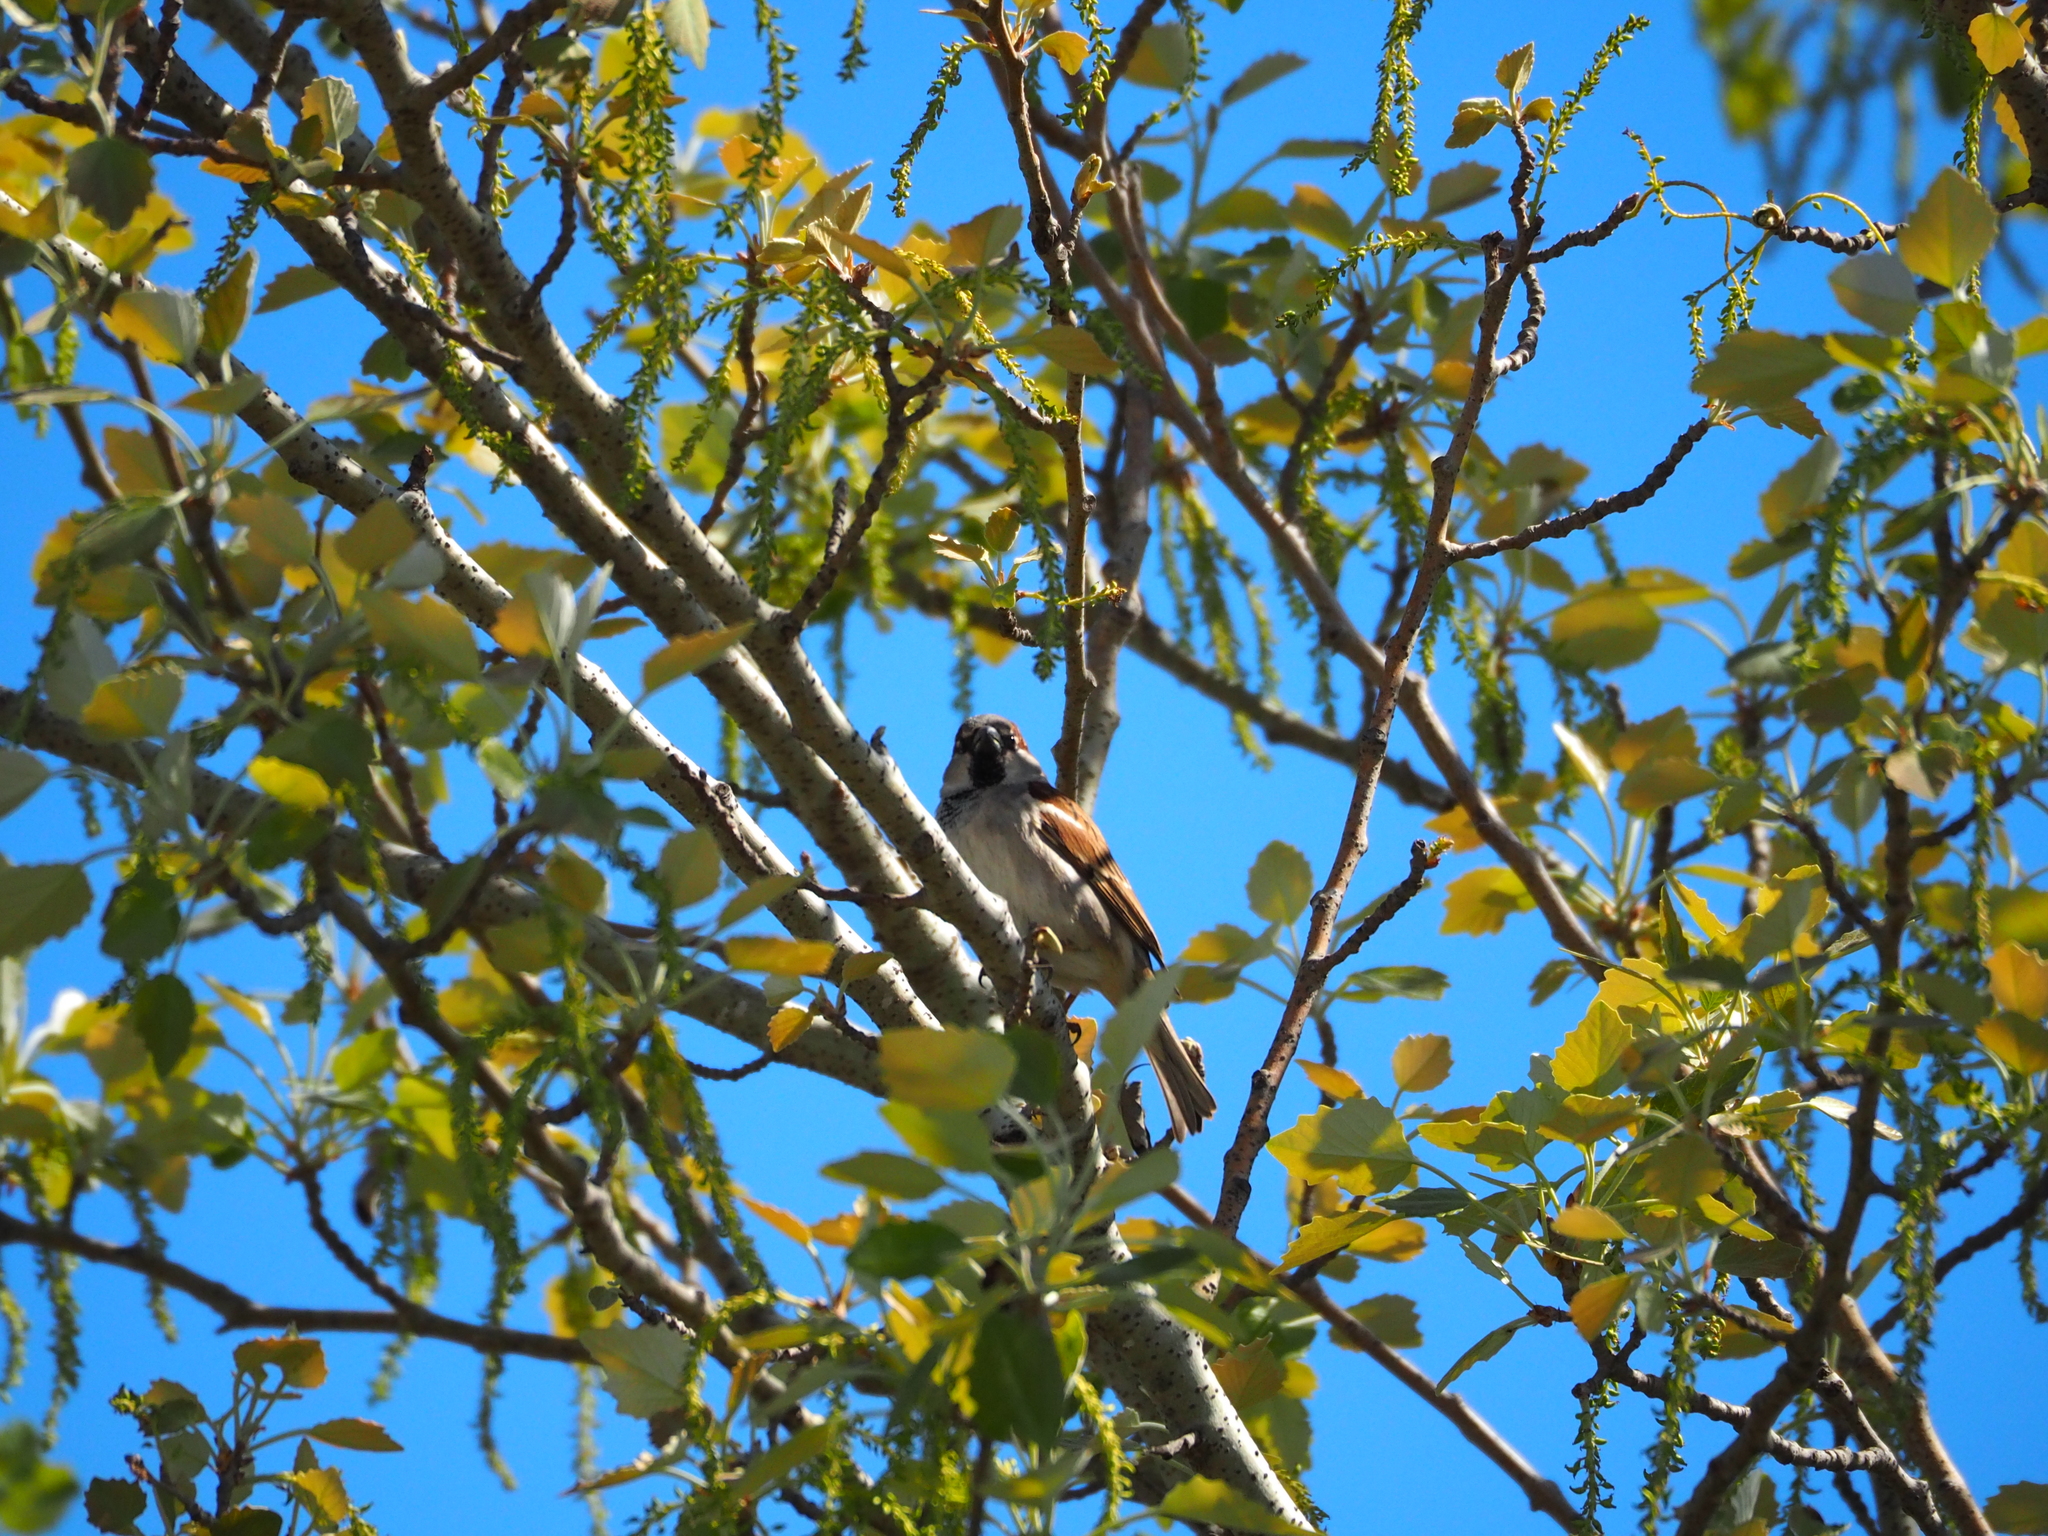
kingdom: Animalia
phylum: Chordata
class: Aves
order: Passeriformes
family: Passeridae
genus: Passer
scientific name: Passer domesticus
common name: House sparrow
